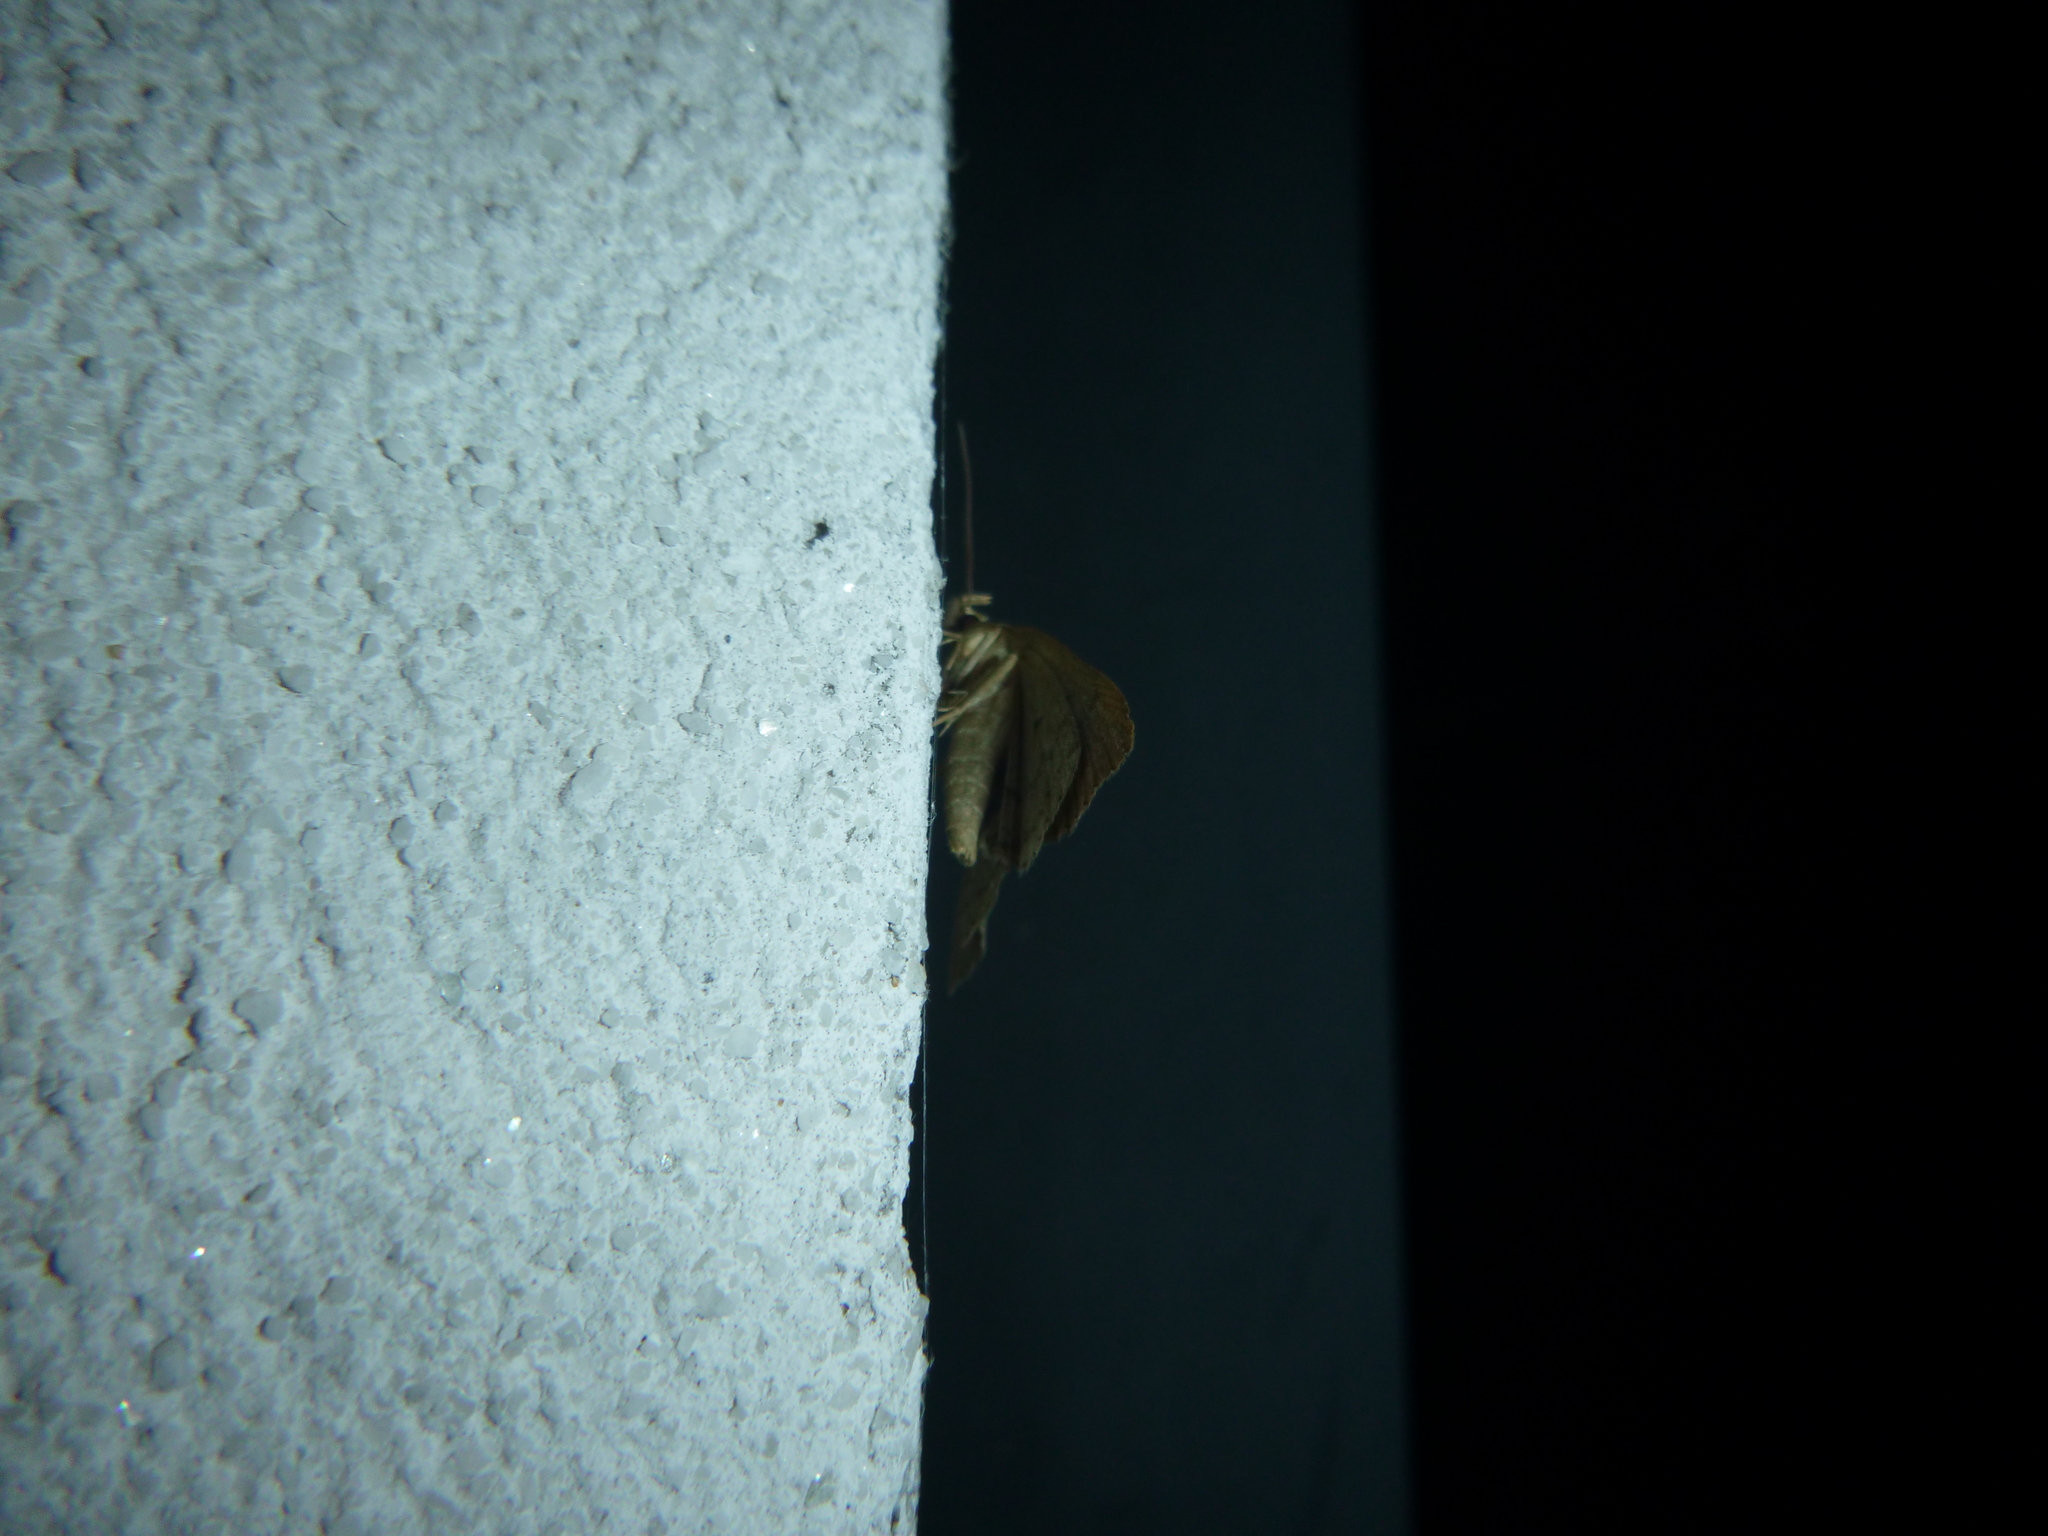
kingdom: Animalia
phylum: Arthropoda
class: Insecta
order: Lepidoptera
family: Erebidae
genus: Herminia
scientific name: Herminia tarsipennalis
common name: Fan-foot
